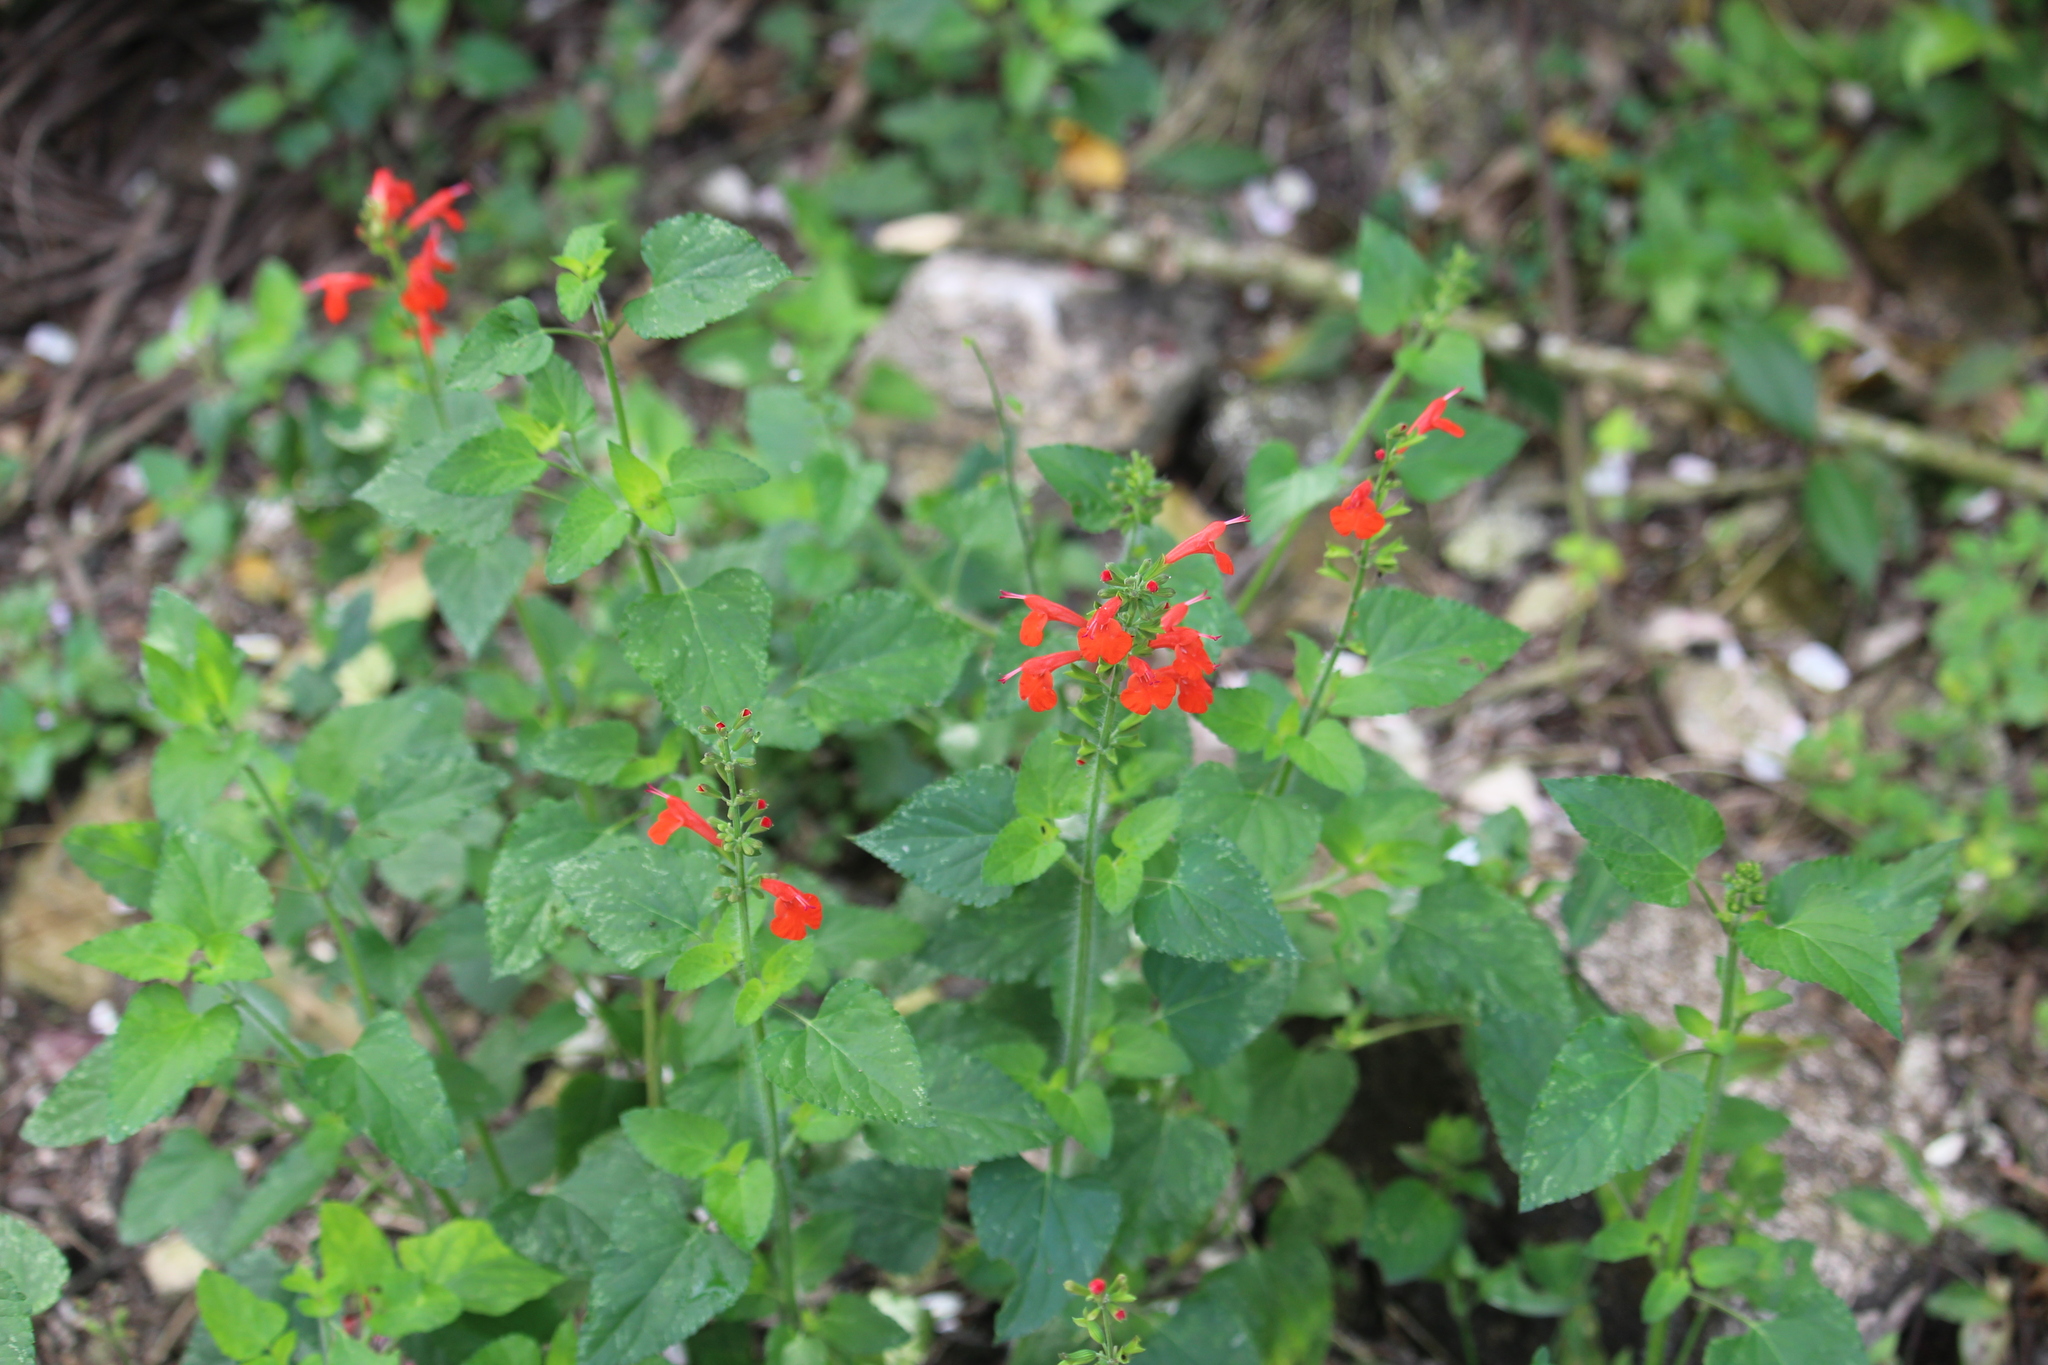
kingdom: Plantae
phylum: Tracheophyta
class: Magnoliopsida
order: Lamiales
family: Lamiaceae
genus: Salvia
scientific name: Salvia coccinea
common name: Blood sage
